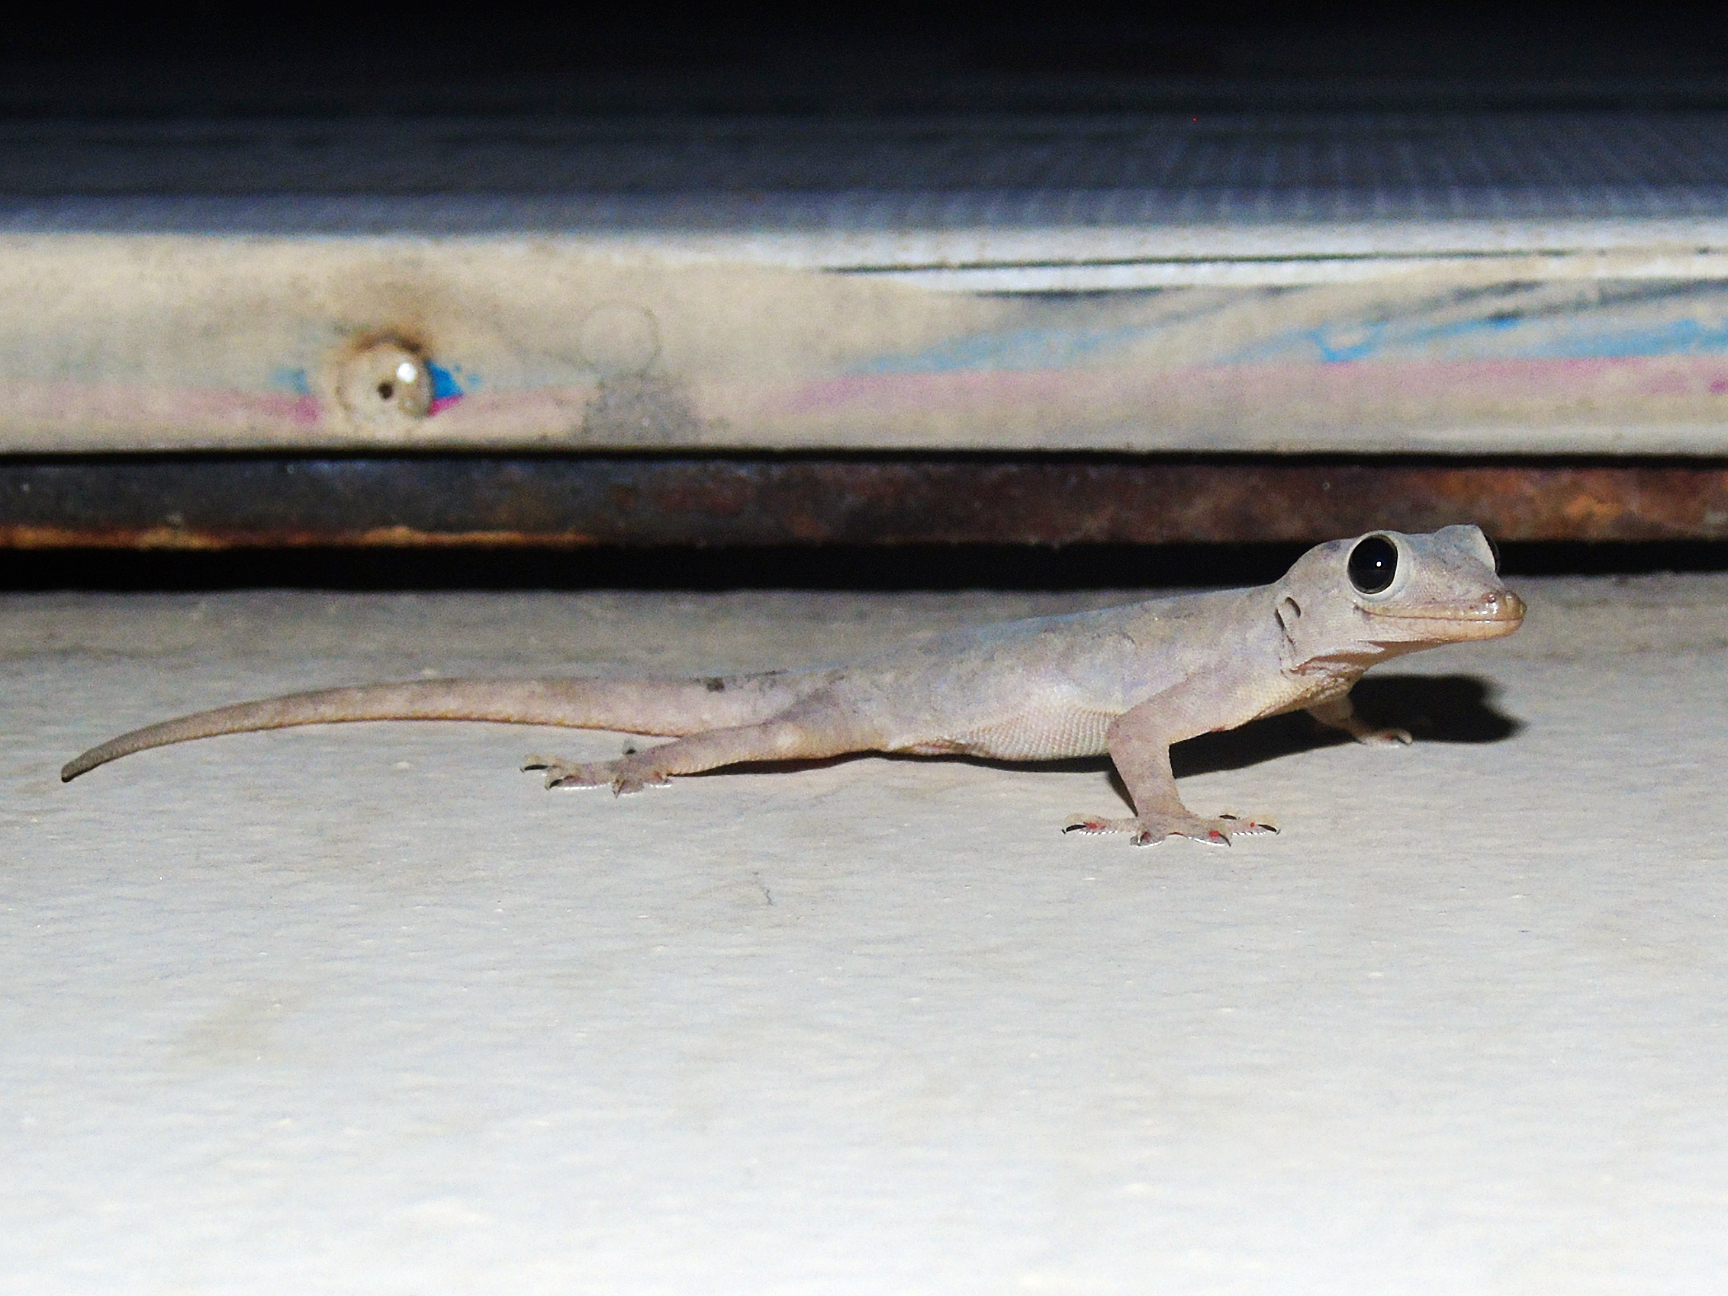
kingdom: Animalia
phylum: Chordata
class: Squamata
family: Gekkonidae
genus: Hemidactylus
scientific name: Hemidactylus flaviviridis
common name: Northern house gecko
